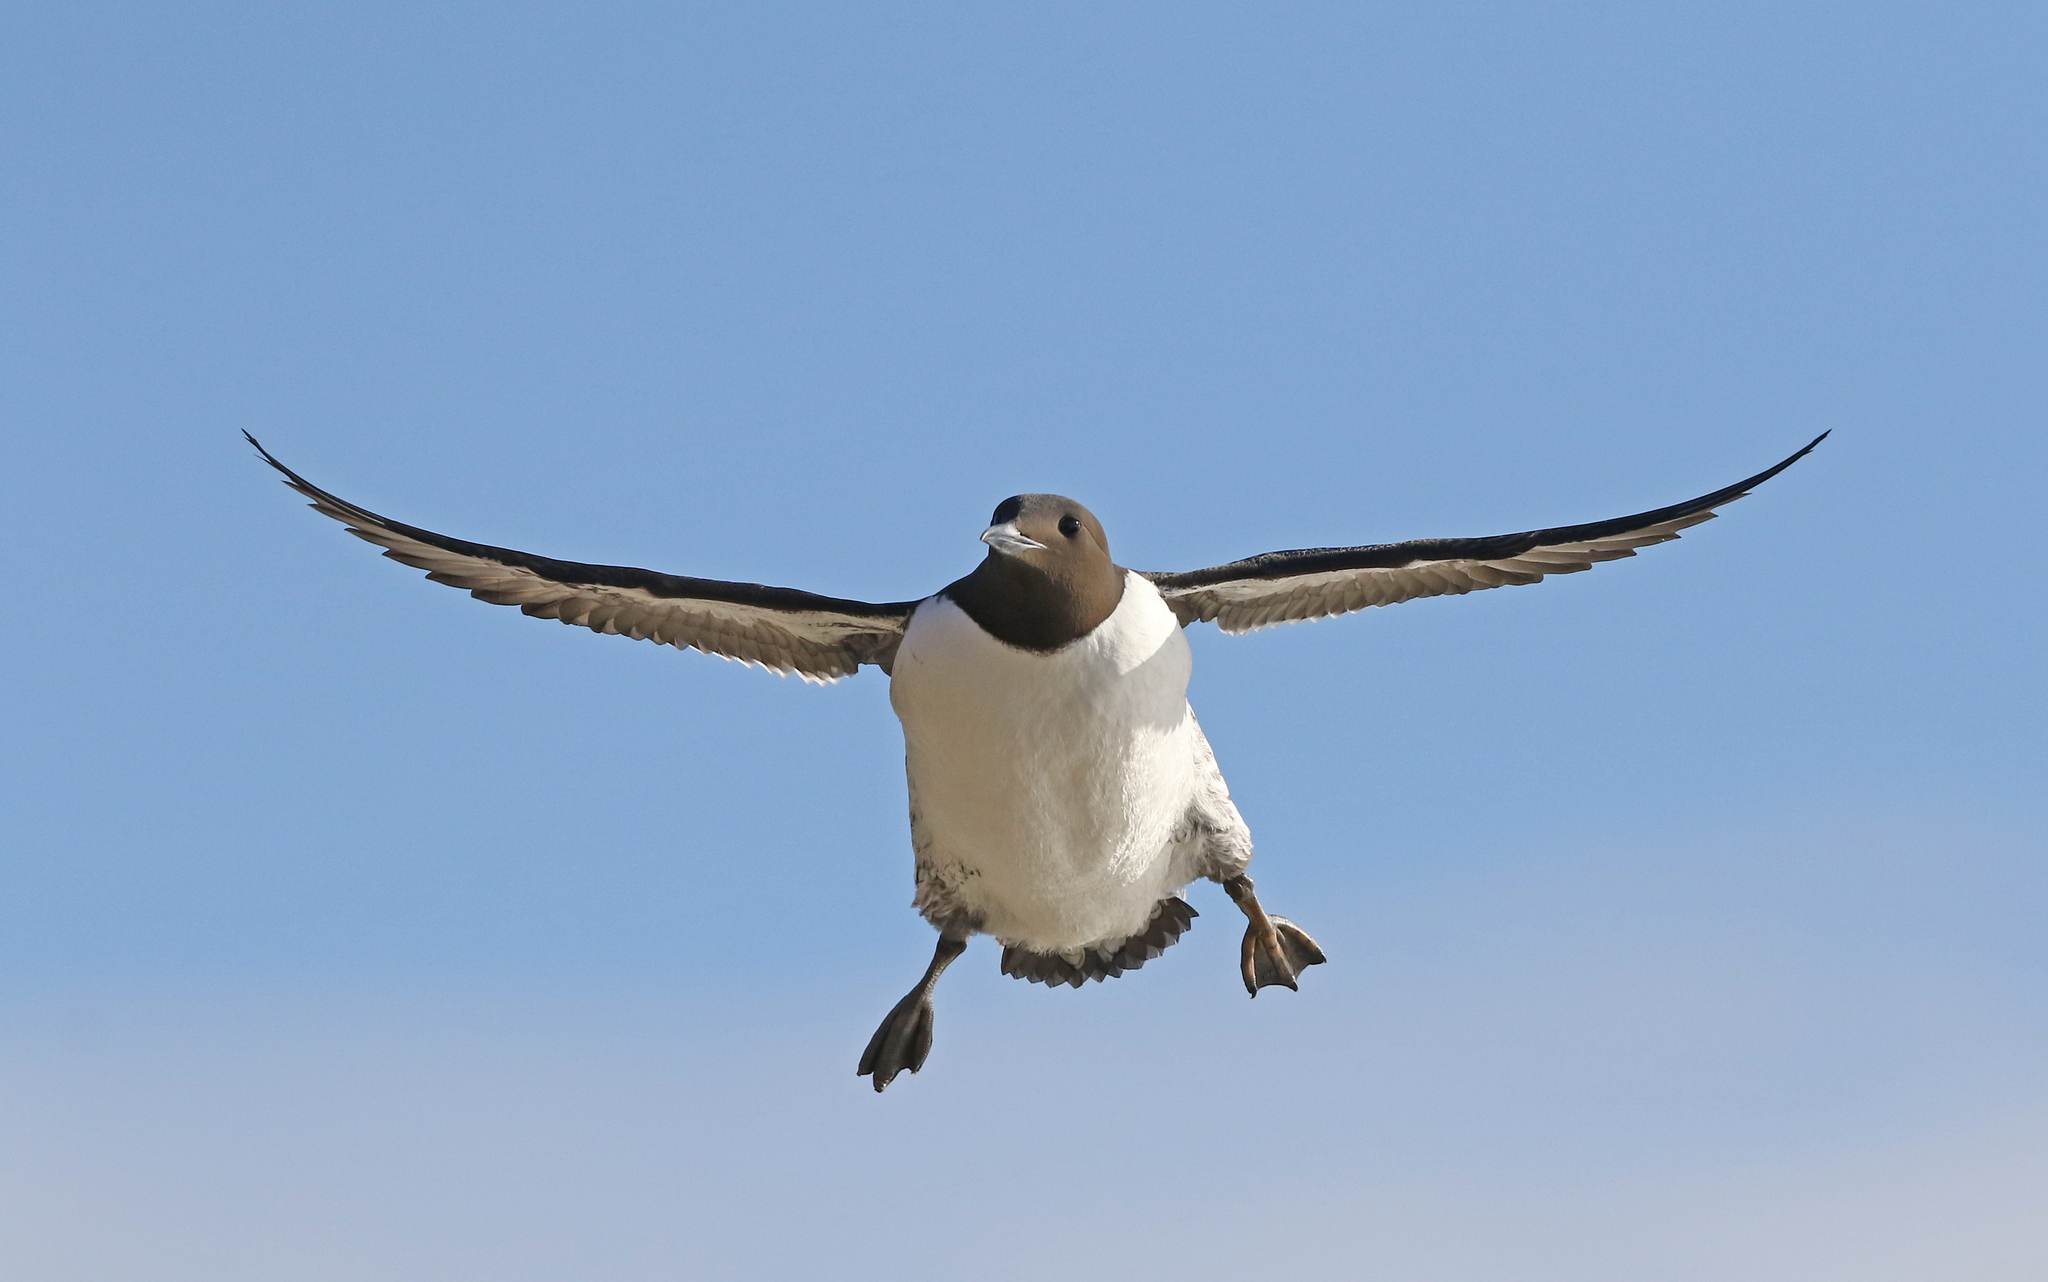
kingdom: Animalia
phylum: Chordata
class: Aves
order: Charadriiformes
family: Alcidae
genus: Uria
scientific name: Uria aalge
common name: Common murre
